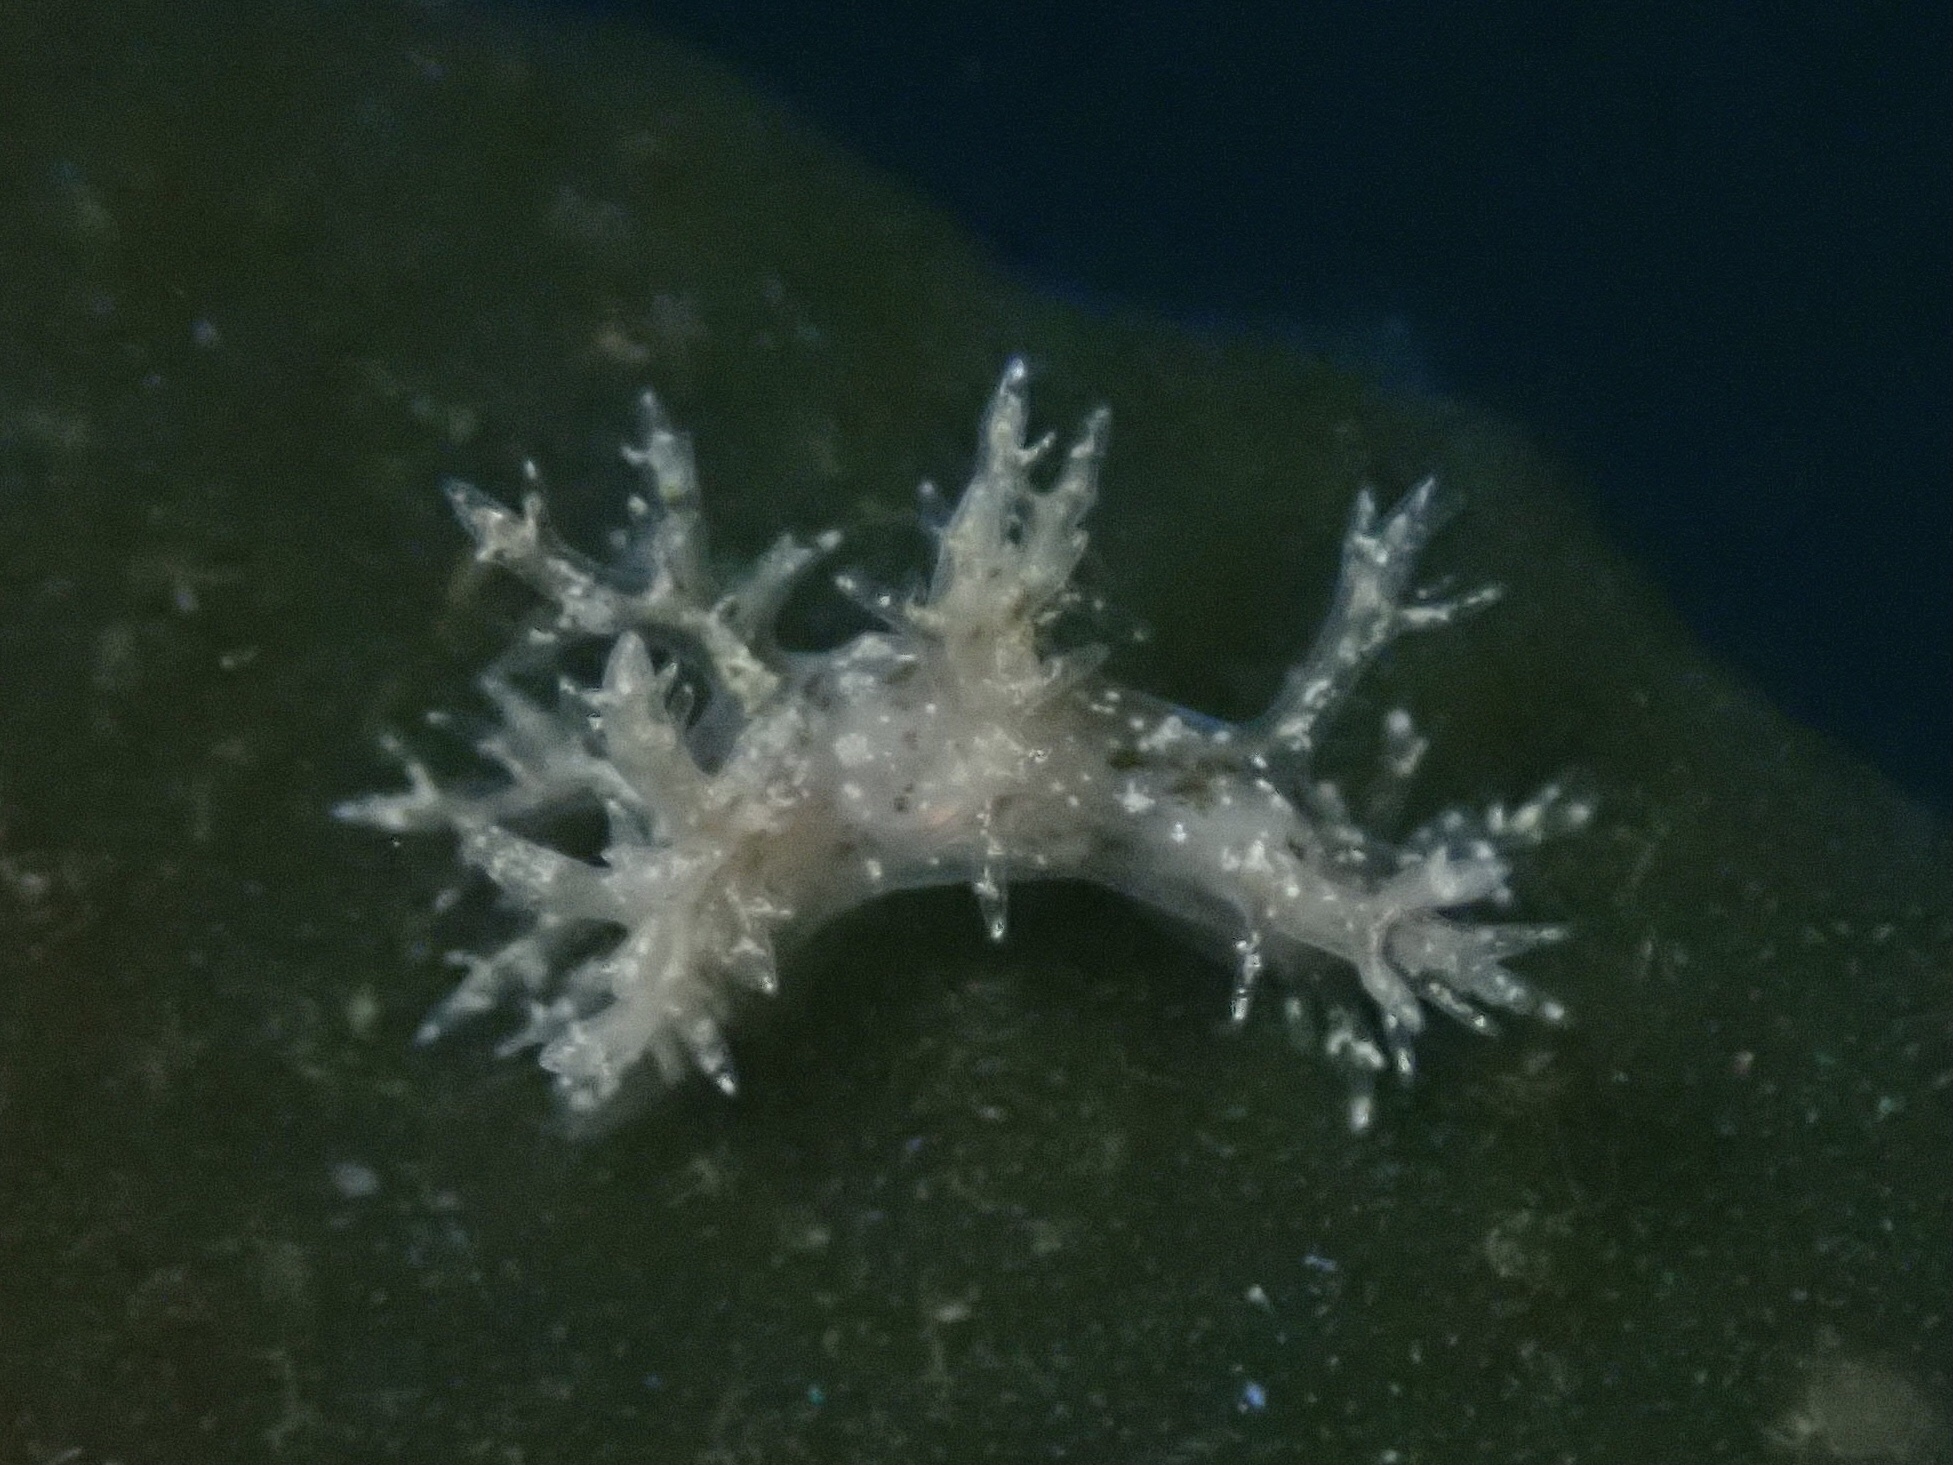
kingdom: Animalia
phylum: Mollusca
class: Gastropoda
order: Nudibranchia
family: Dendronotidae
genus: Dendronotus
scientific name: Dendronotus venustus
